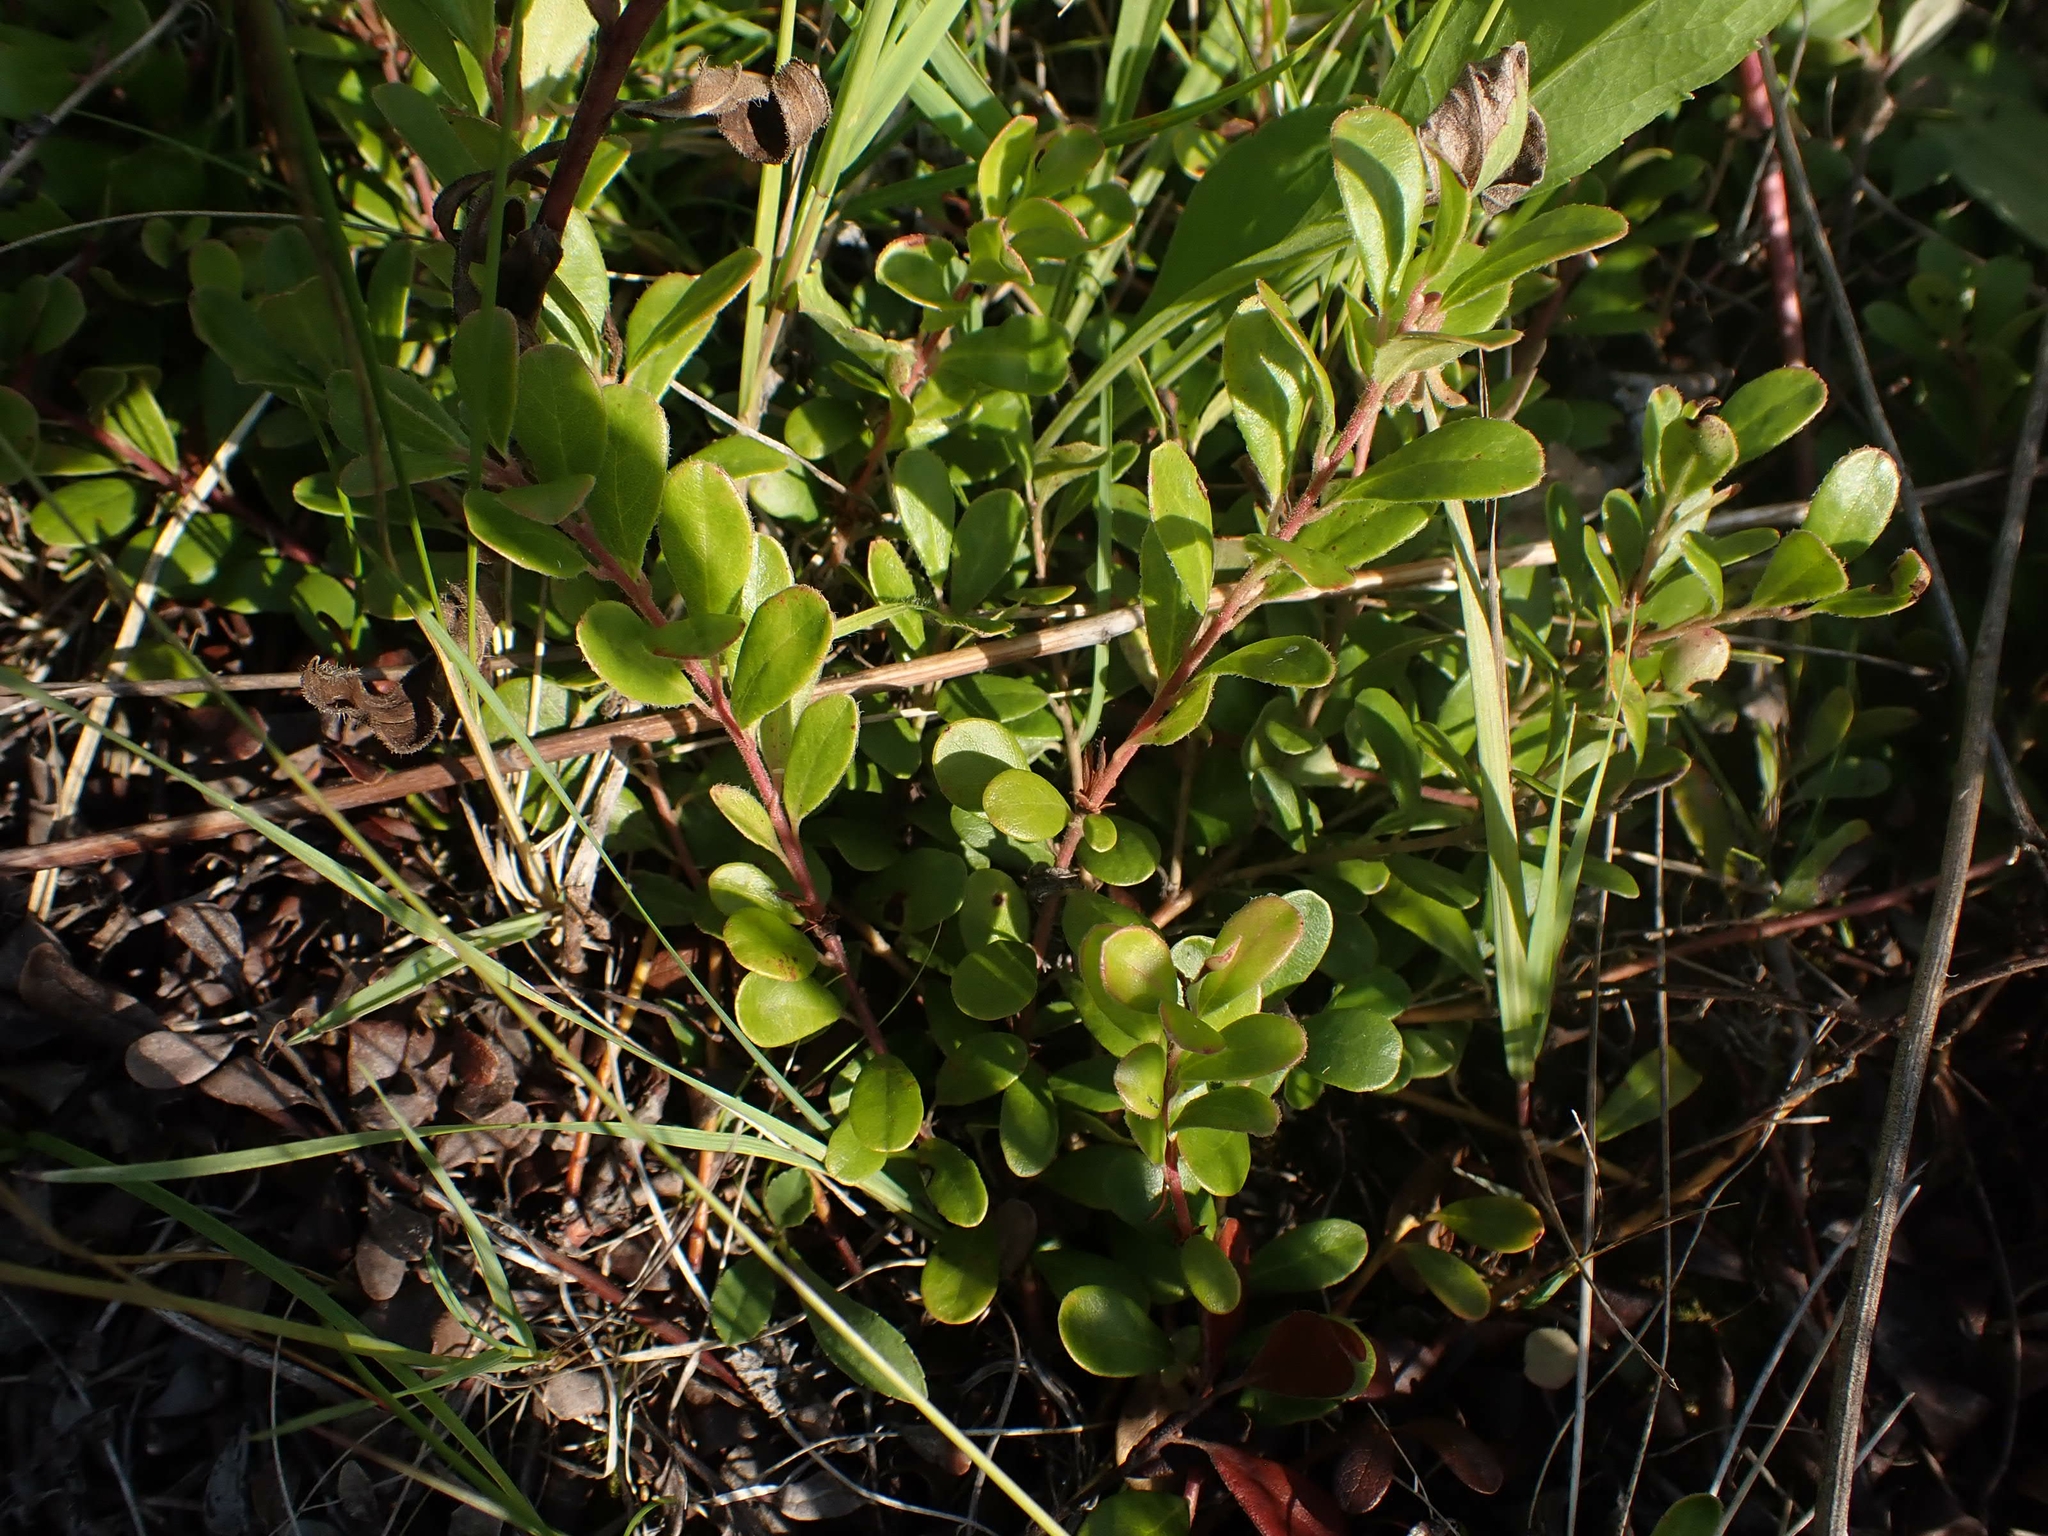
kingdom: Plantae
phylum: Tracheophyta
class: Magnoliopsida
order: Ericales
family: Ericaceae
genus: Arctostaphylos
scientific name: Arctostaphylos uva-ursi
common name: Bearberry
